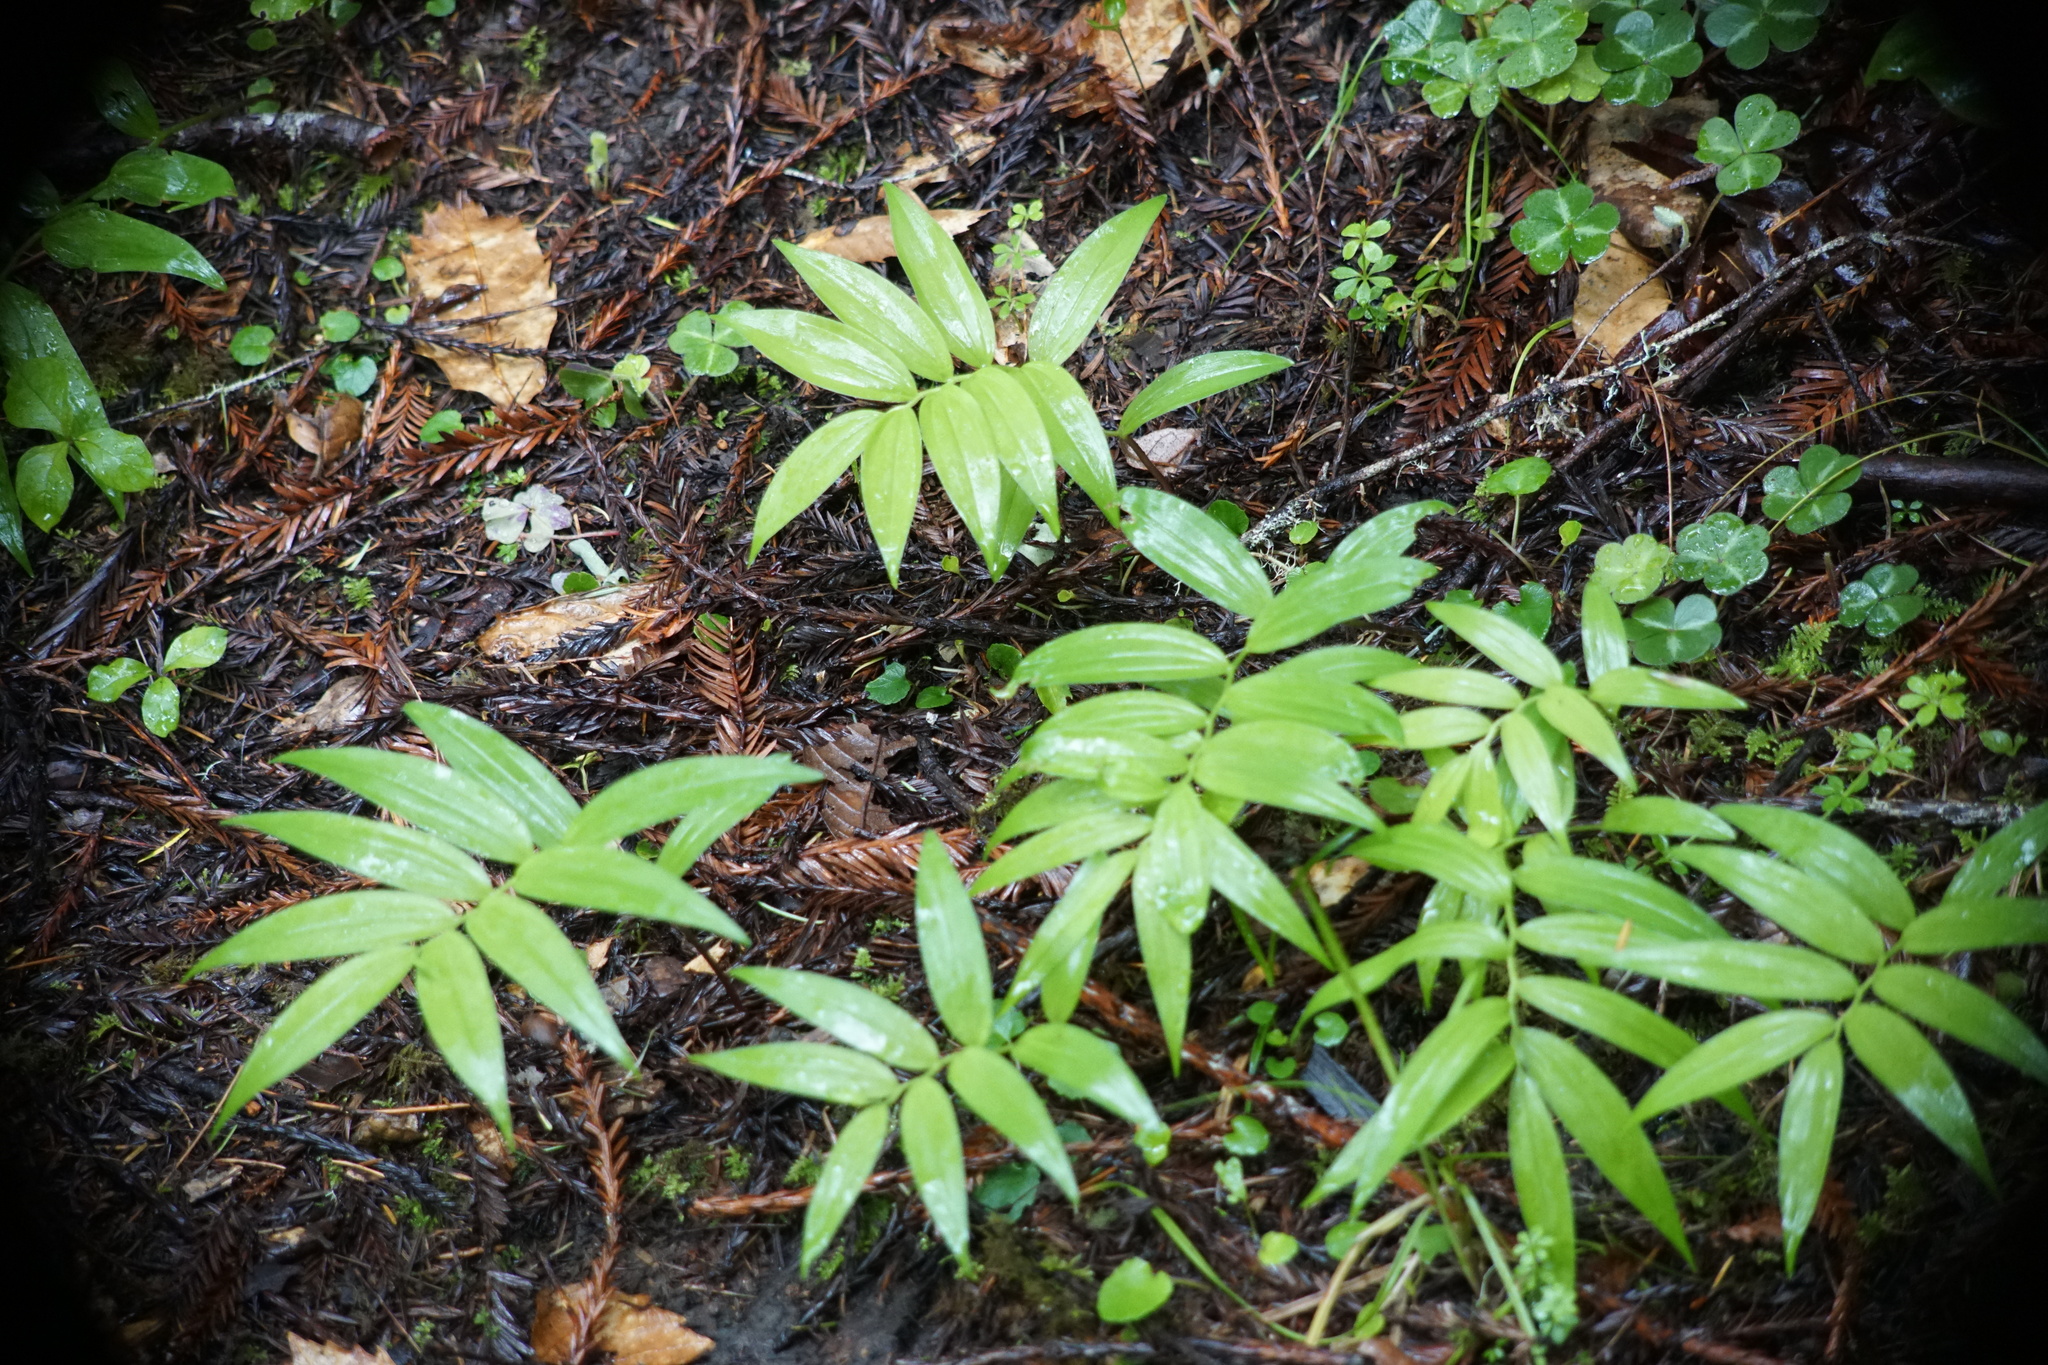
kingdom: Plantae
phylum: Tracheophyta
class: Liliopsida
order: Asparagales
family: Asparagaceae
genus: Maianthemum
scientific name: Maianthemum stellatum
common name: Little false solomon's seal
